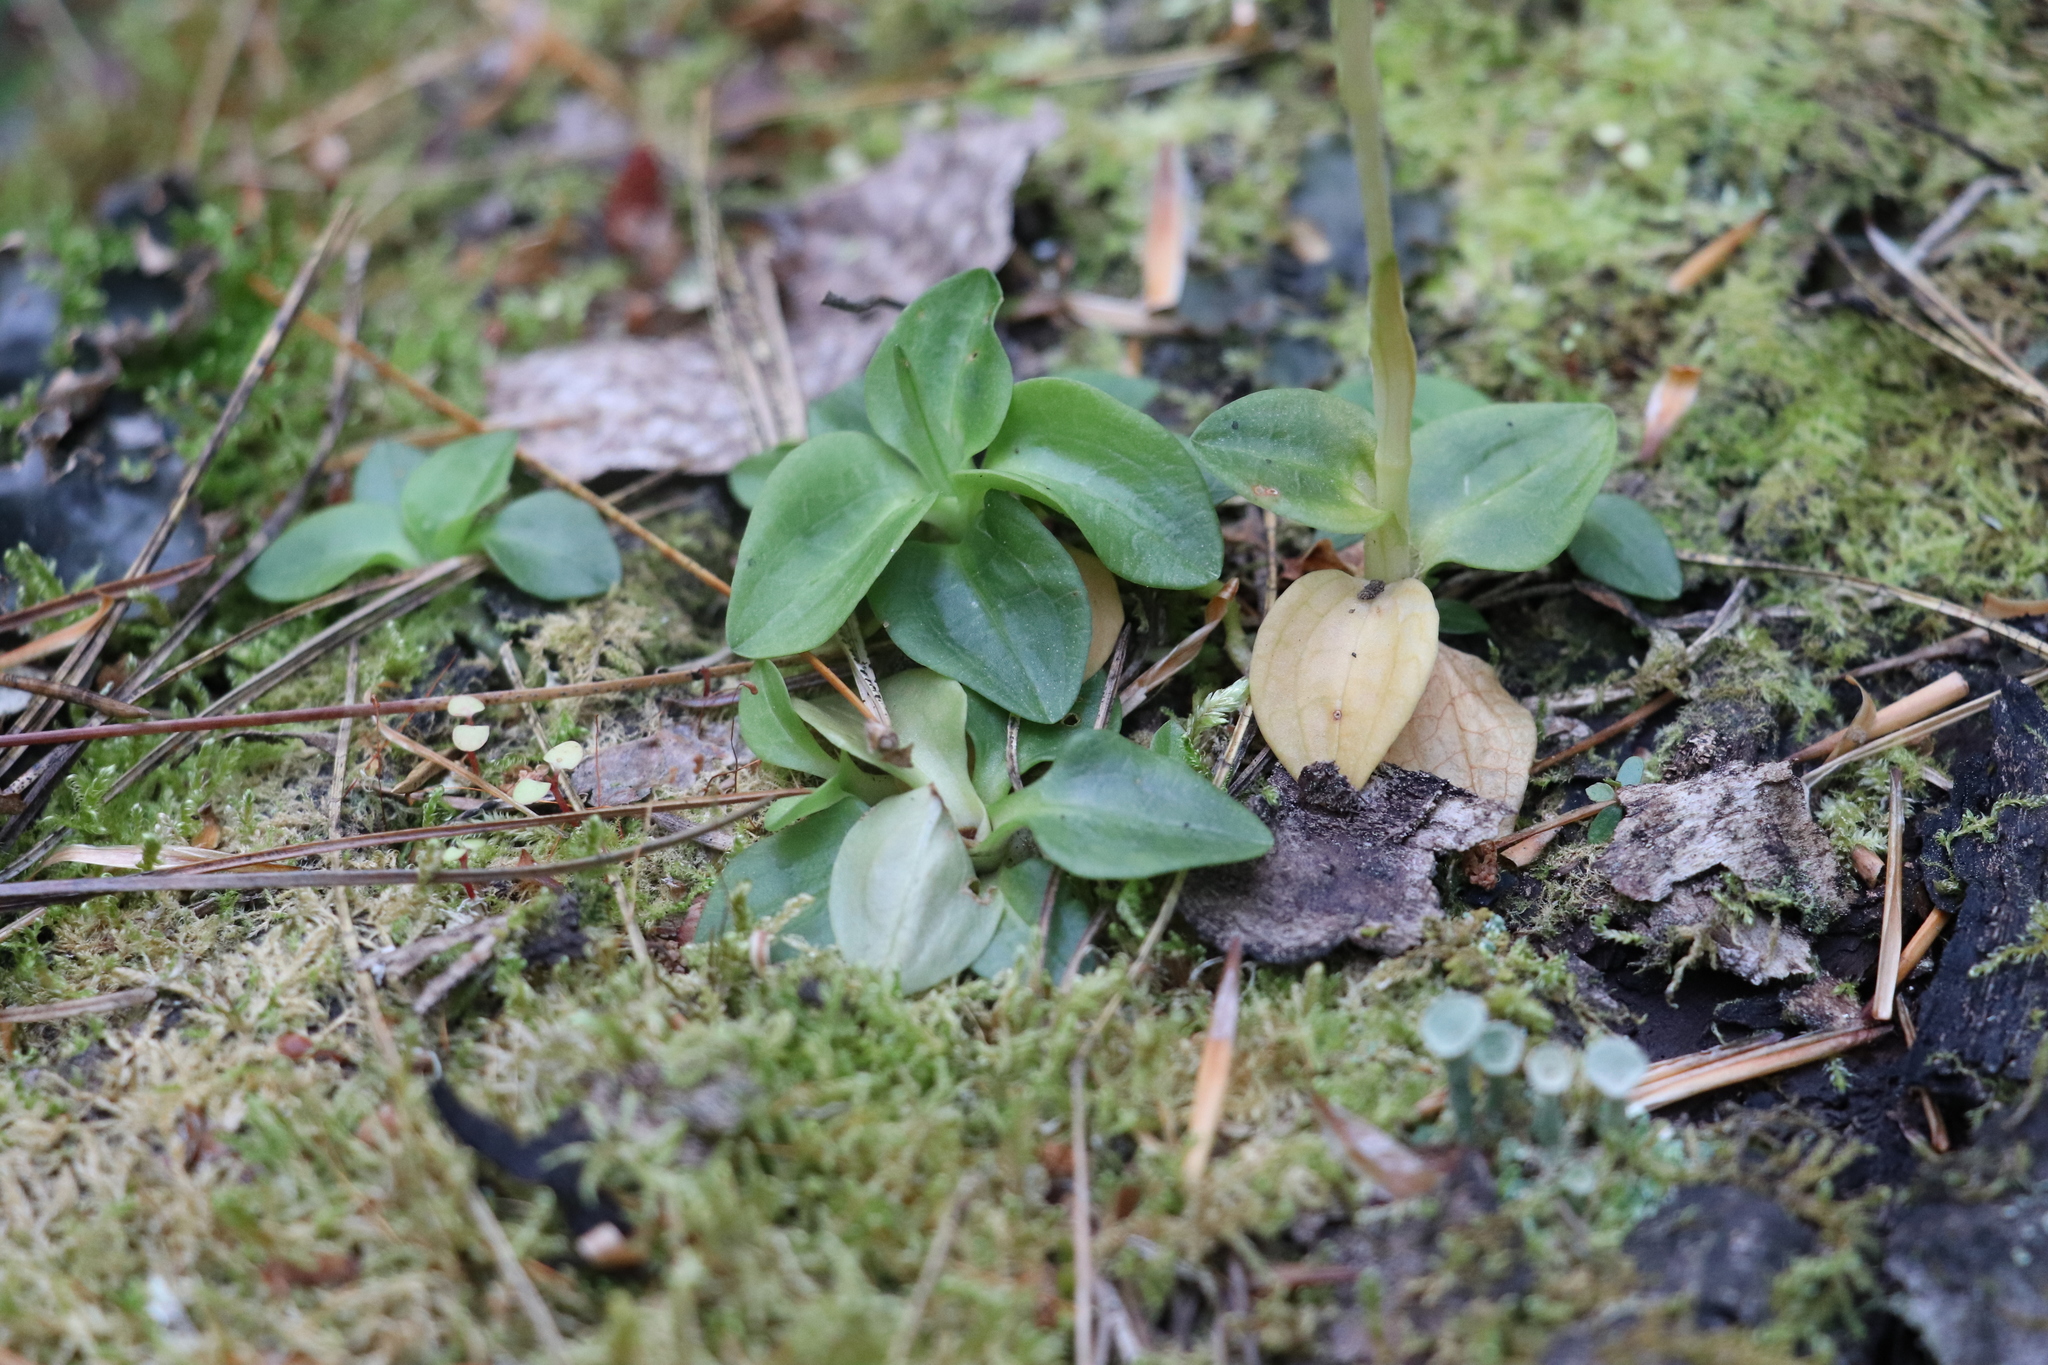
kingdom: Plantae
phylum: Tracheophyta
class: Liliopsida
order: Asparagales
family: Orchidaceae
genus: Goodyera
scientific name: Goodyera repens
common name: Creeping lady's-tresses
